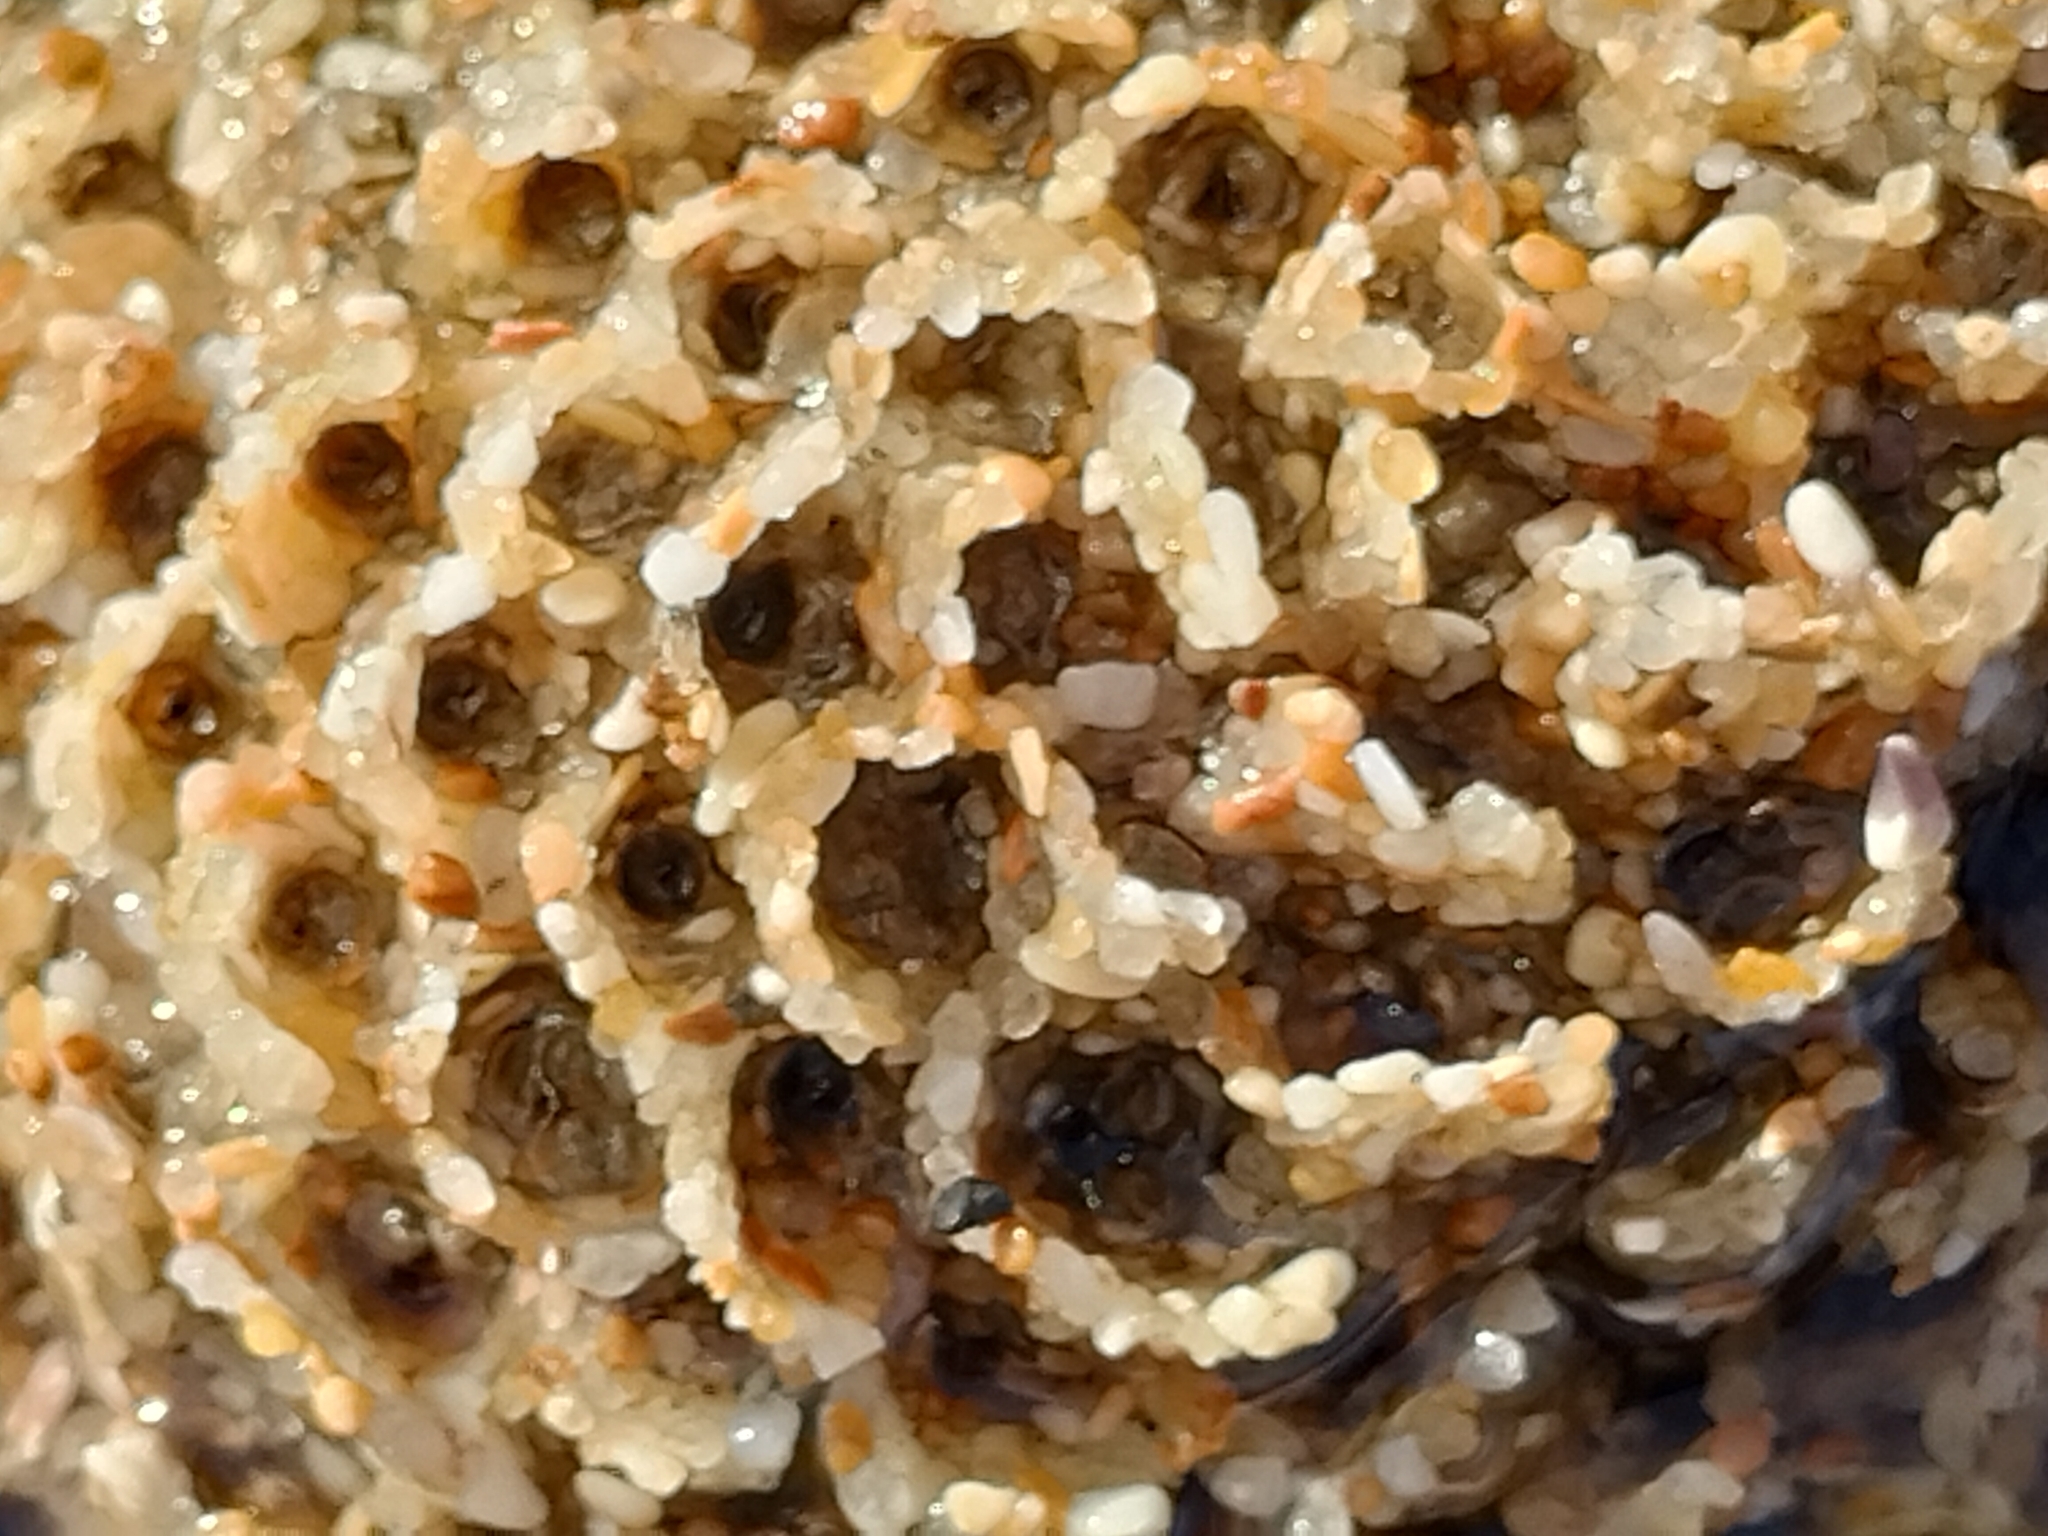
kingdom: Animalia
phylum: Annelida
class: Polychaeta
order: Sabellida
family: Sabellariidae
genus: Sabellaria
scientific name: Sabellaria alveolata
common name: Honeycomb worm
